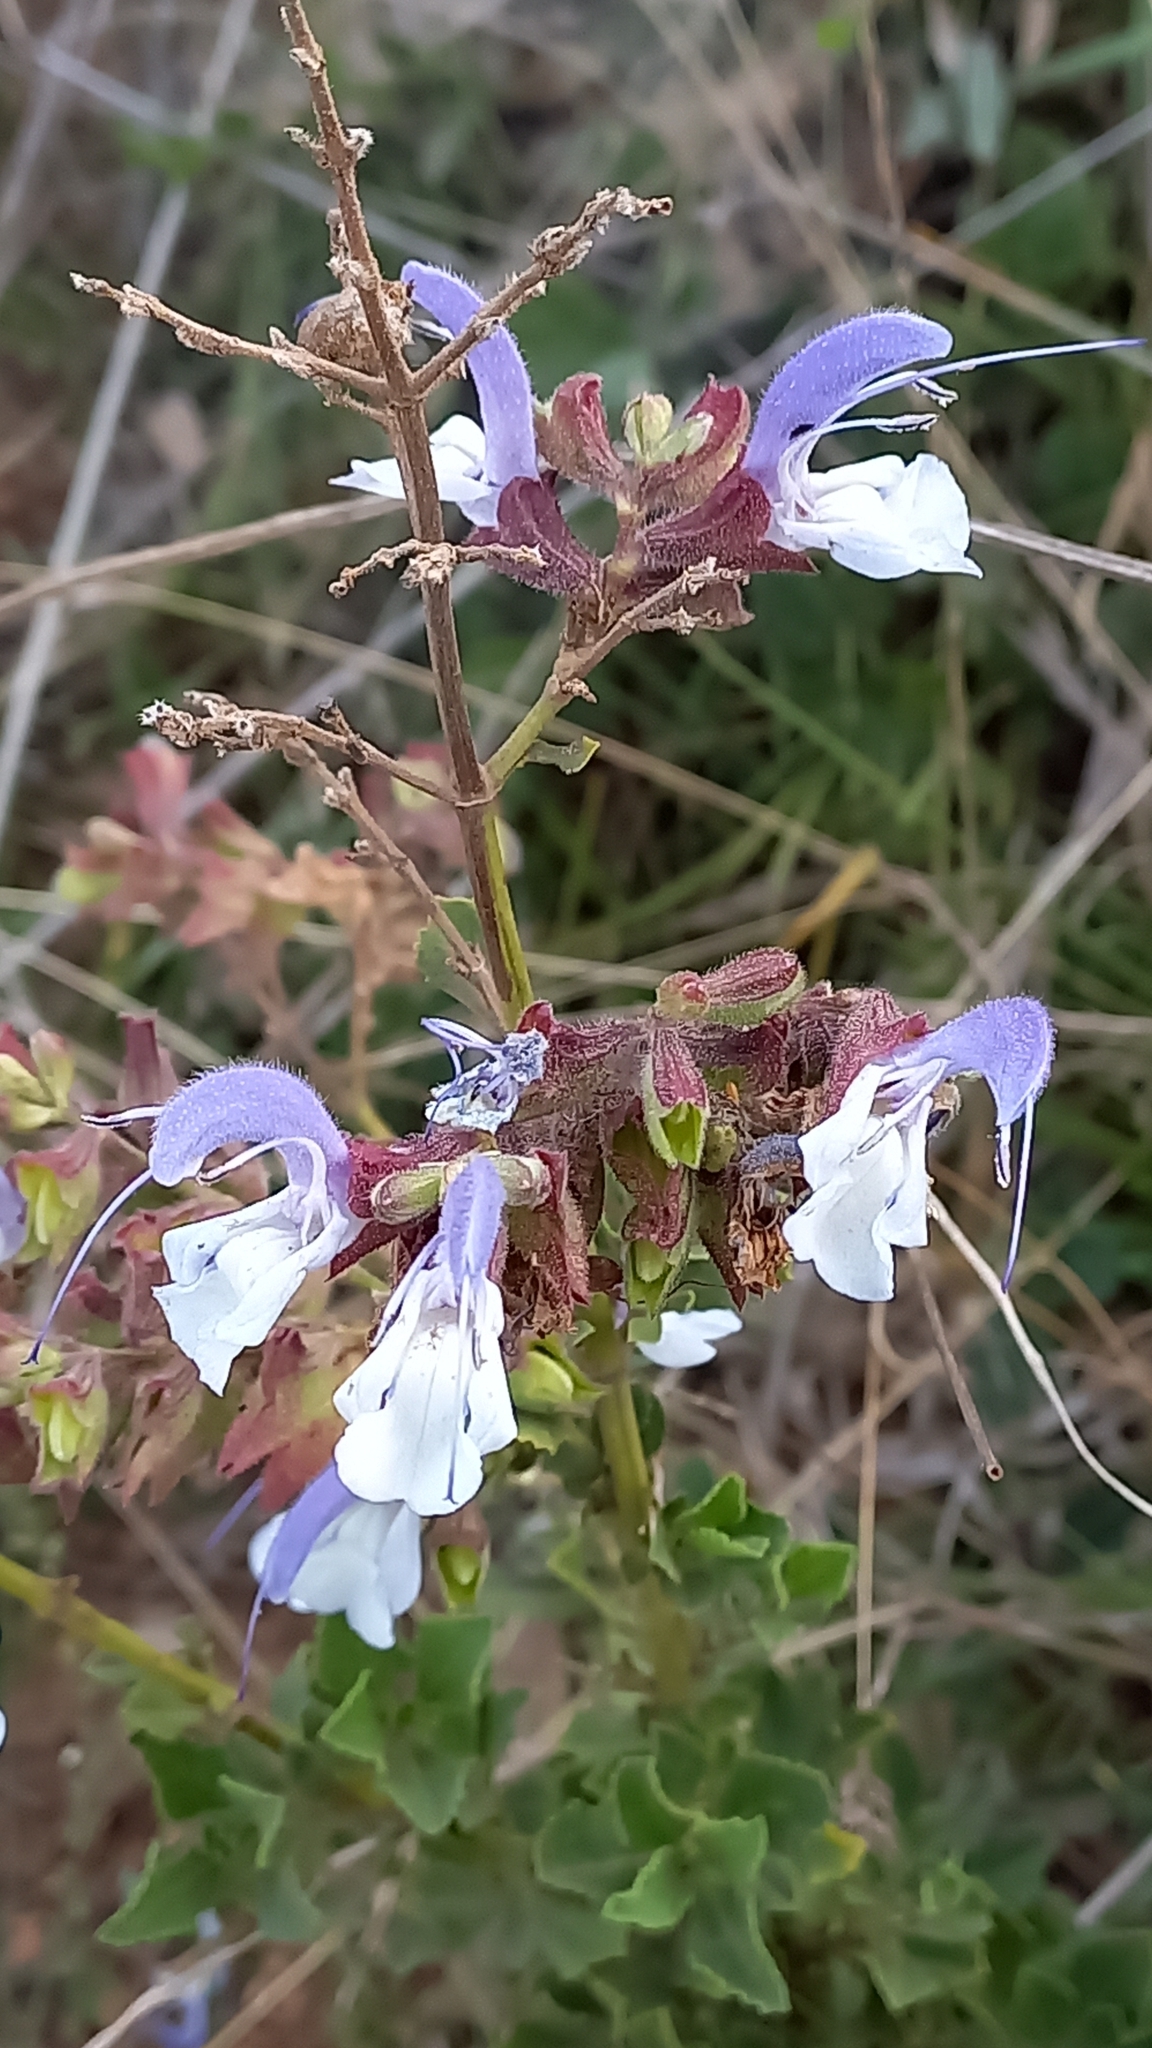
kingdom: Plantae
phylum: Tracheophyta
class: Magnoliopsida
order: Lamiales
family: Lamiaceae
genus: Salvia
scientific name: Salvia chamelaeagnea
